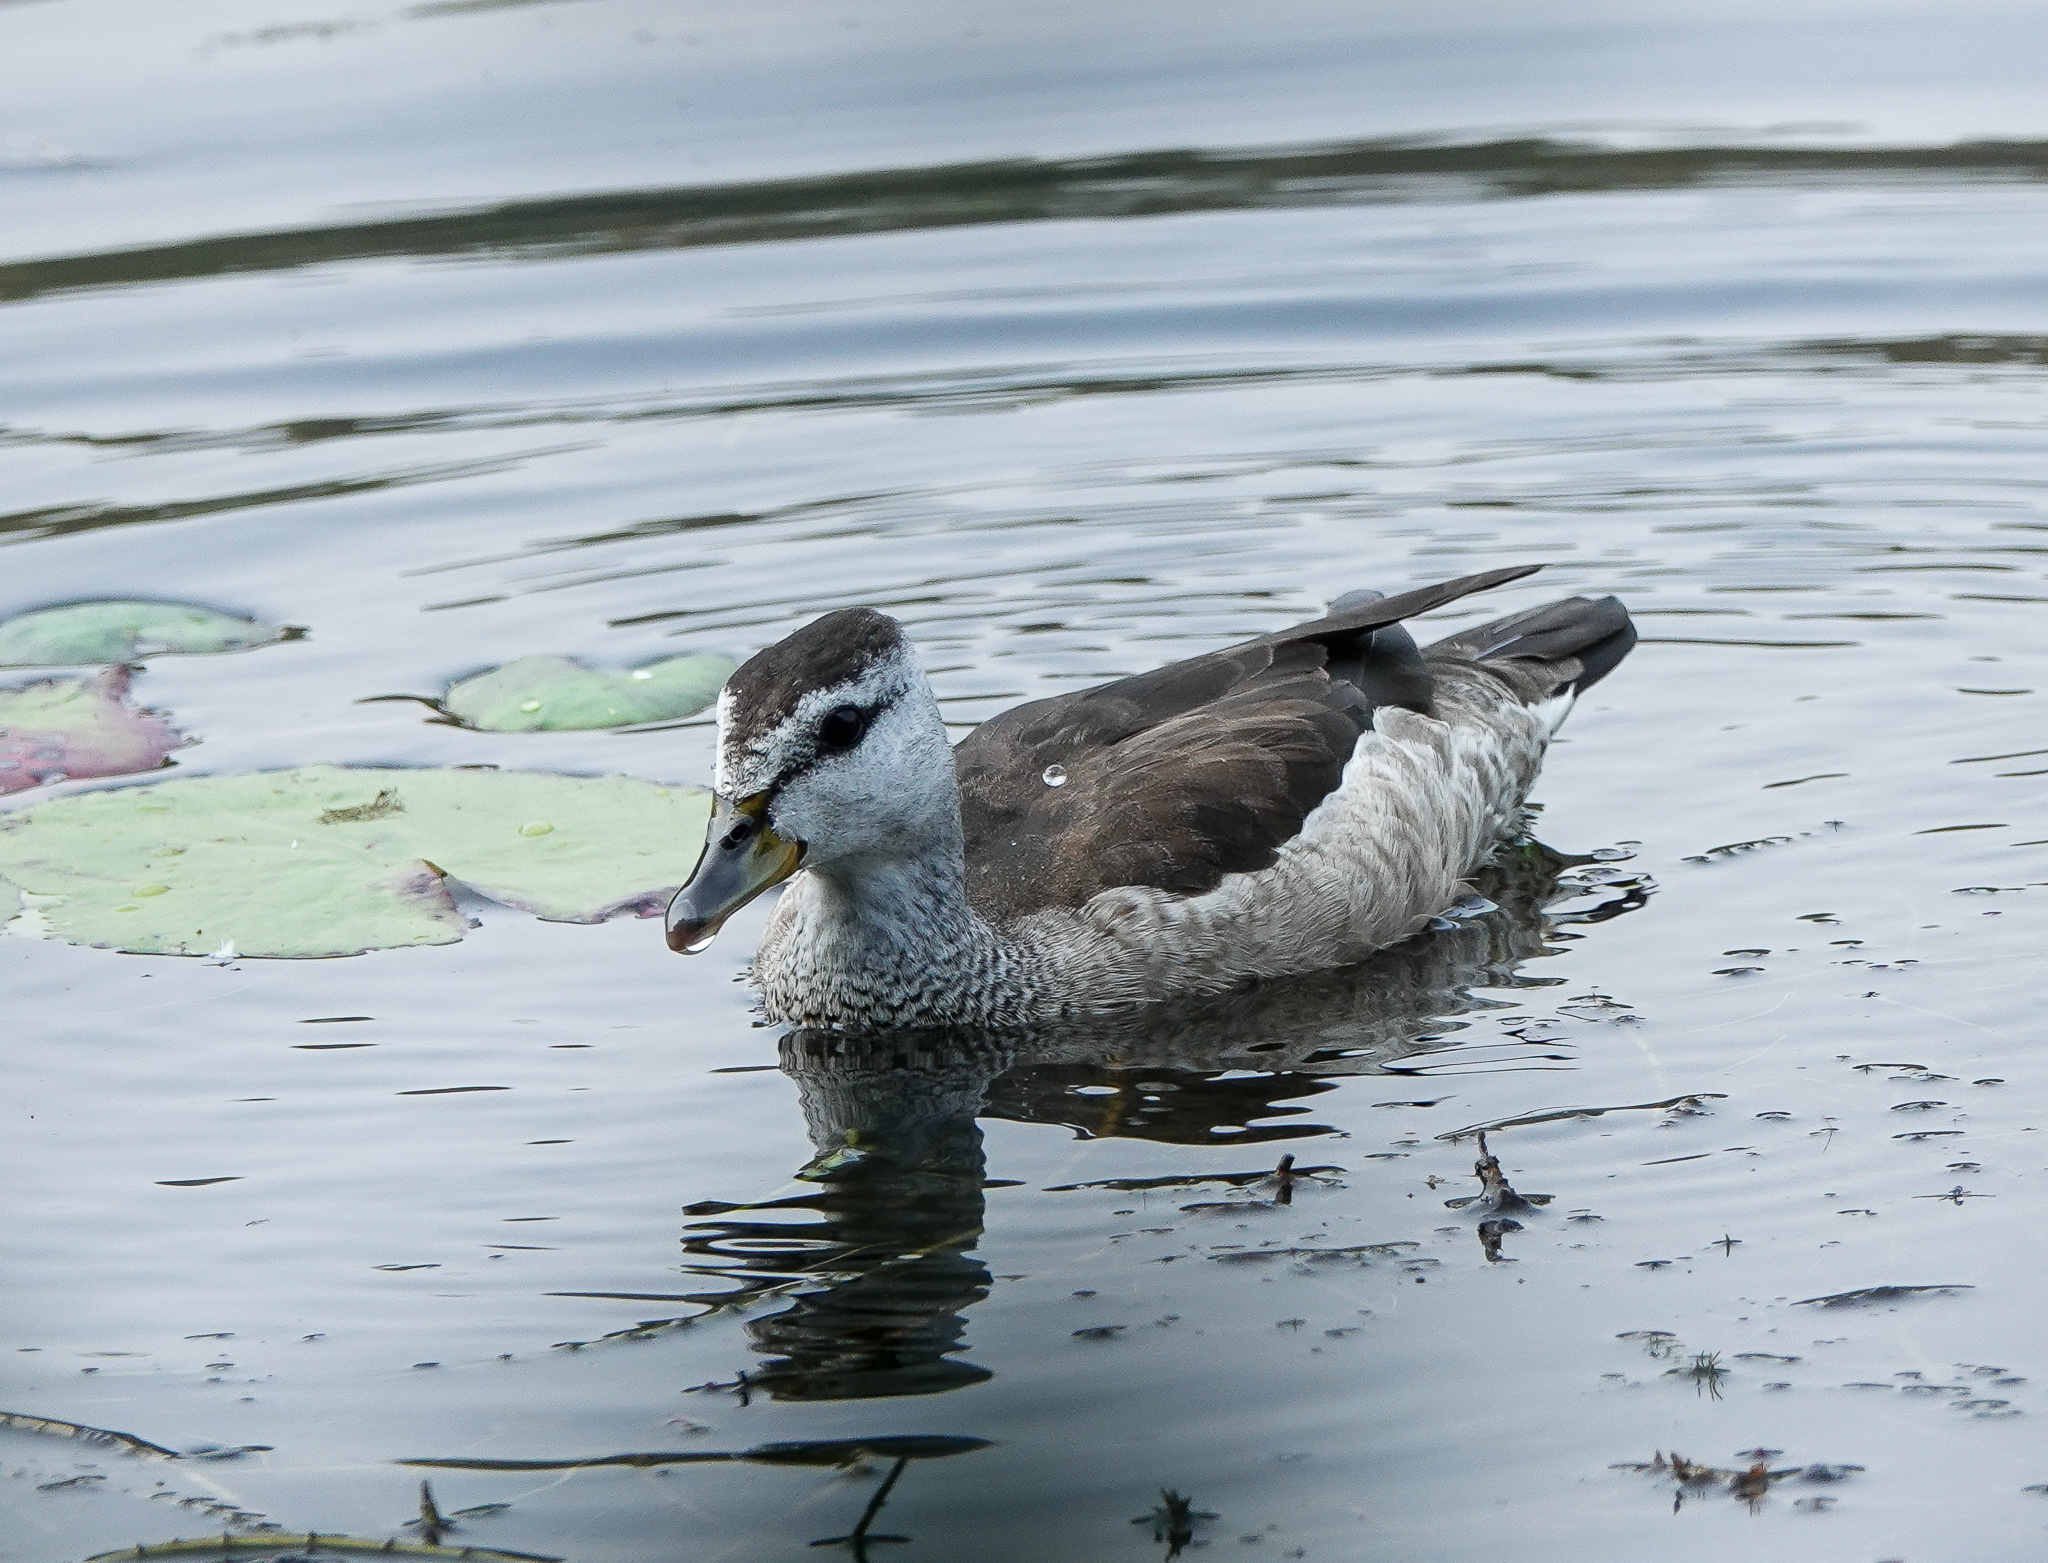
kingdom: Animalia
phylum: Chordata
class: Aves
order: Anseriformes
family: Anatidae
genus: Nettapus
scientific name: Nettapus coromandelianus
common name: Cotton pygmy-goose
